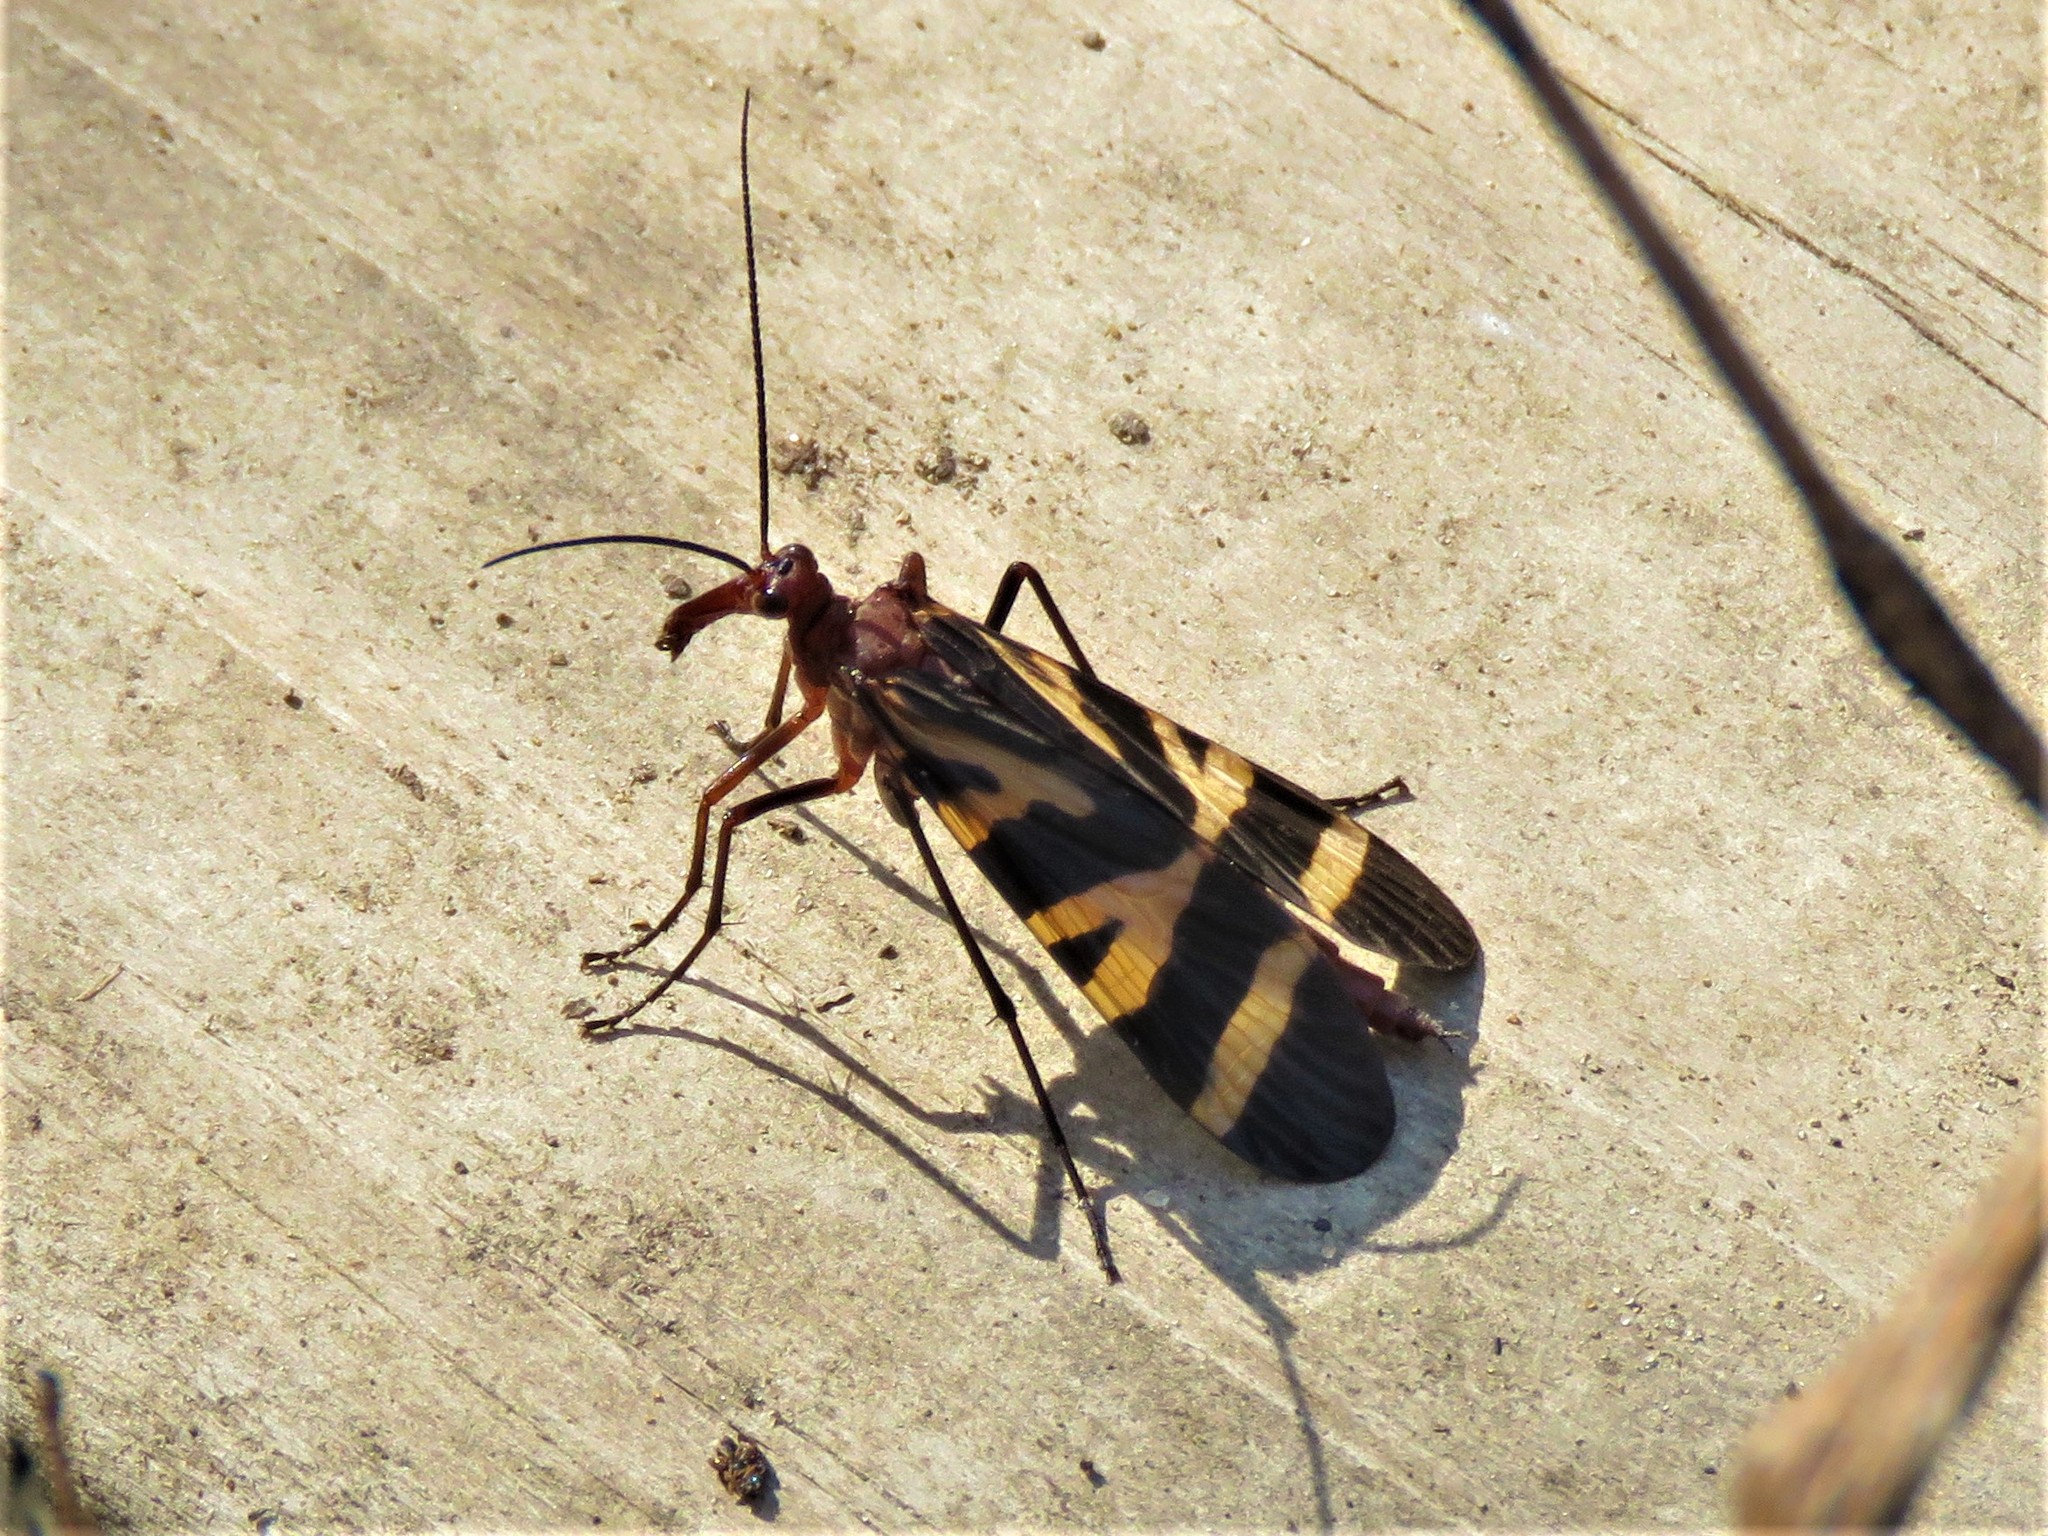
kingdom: Animalia
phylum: Arthropoda
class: Insecta
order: Mecoptera
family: Panorpidae
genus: Panorpa
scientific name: Panorpa nuptialis
